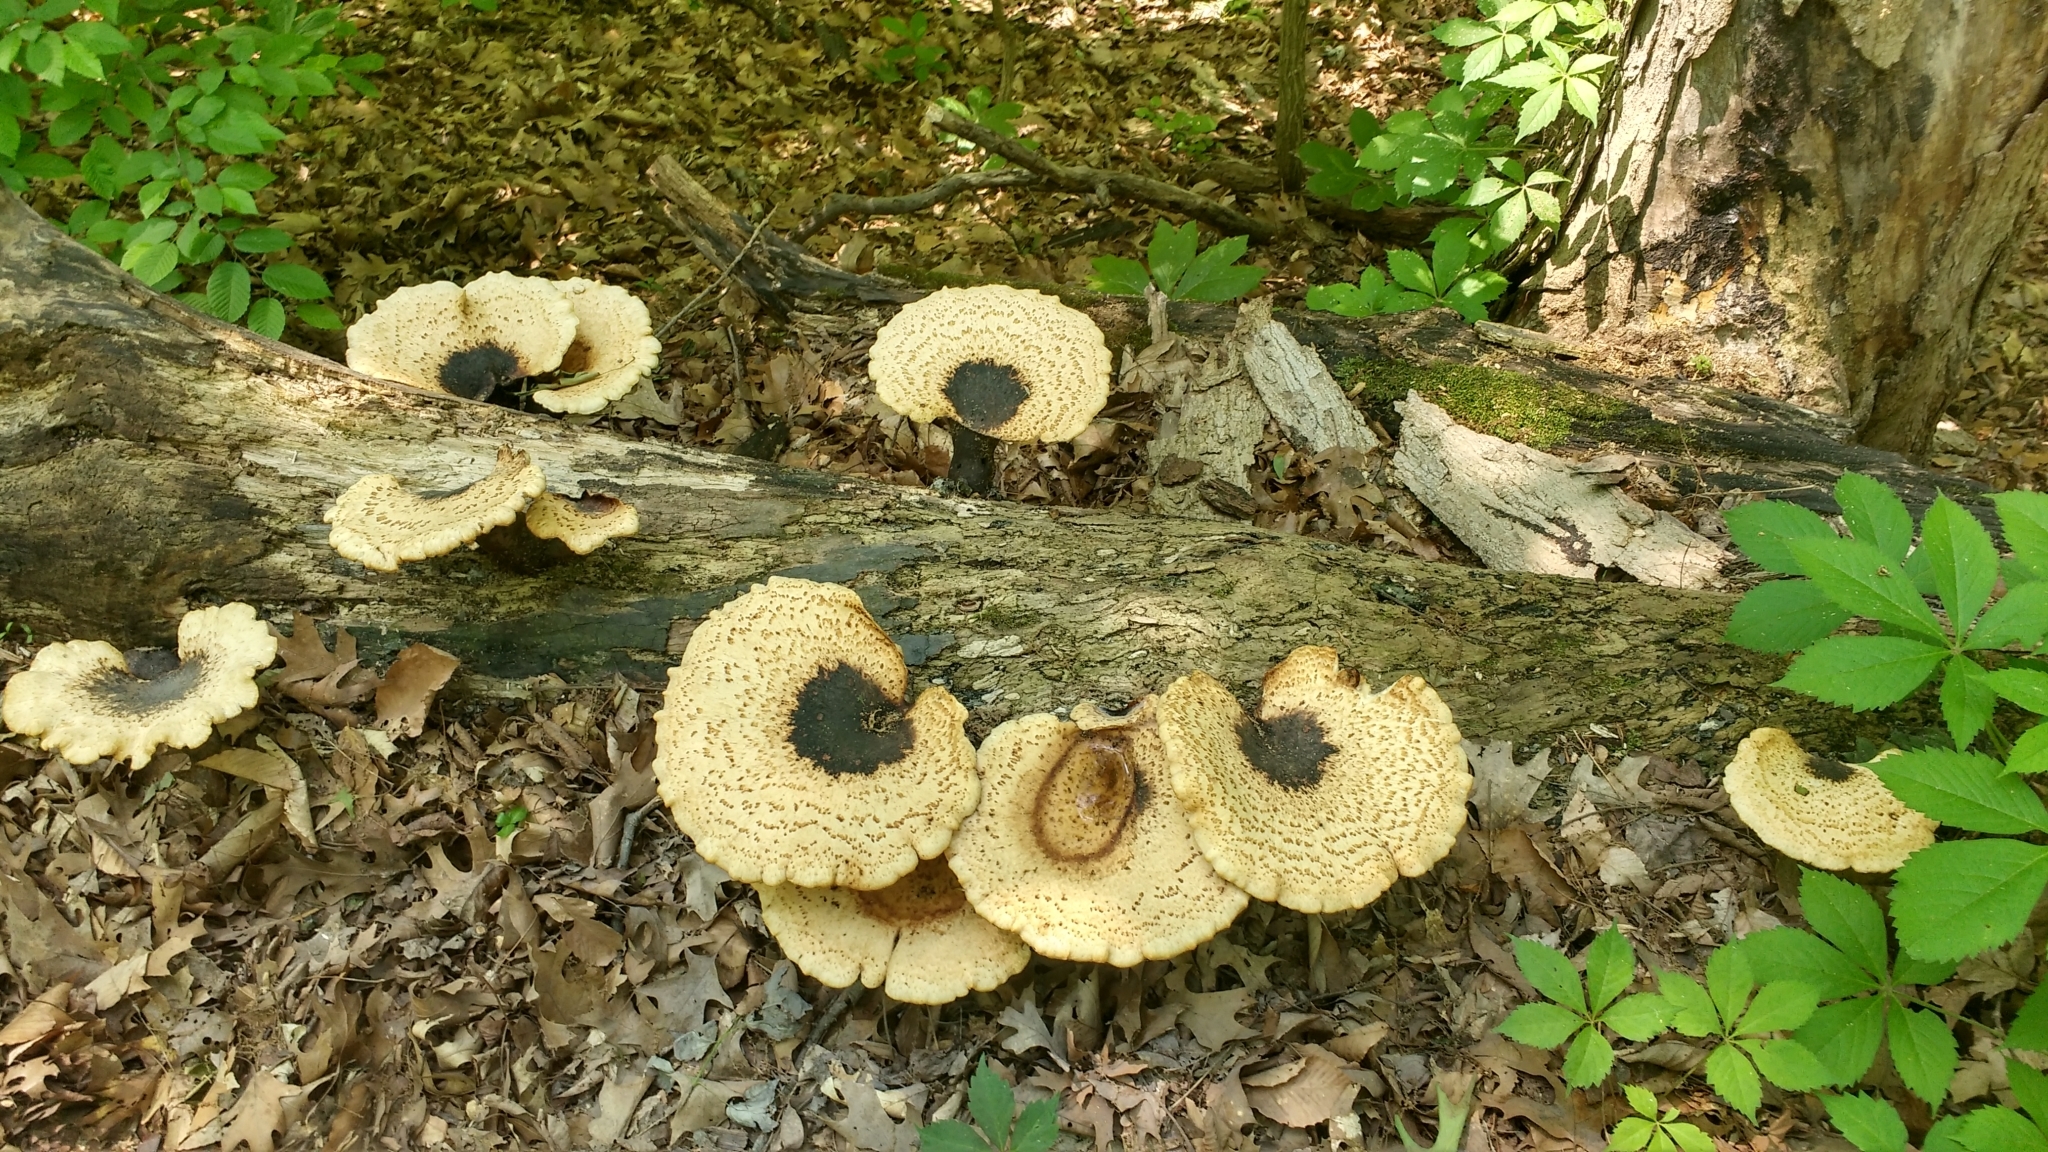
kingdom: Fungi
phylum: Basidiomycota
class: Agaricomycetes
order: Polyporales
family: Polyporaceae
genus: Cerioporus
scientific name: Cerioporus squamosus
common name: Dryad's saddle
